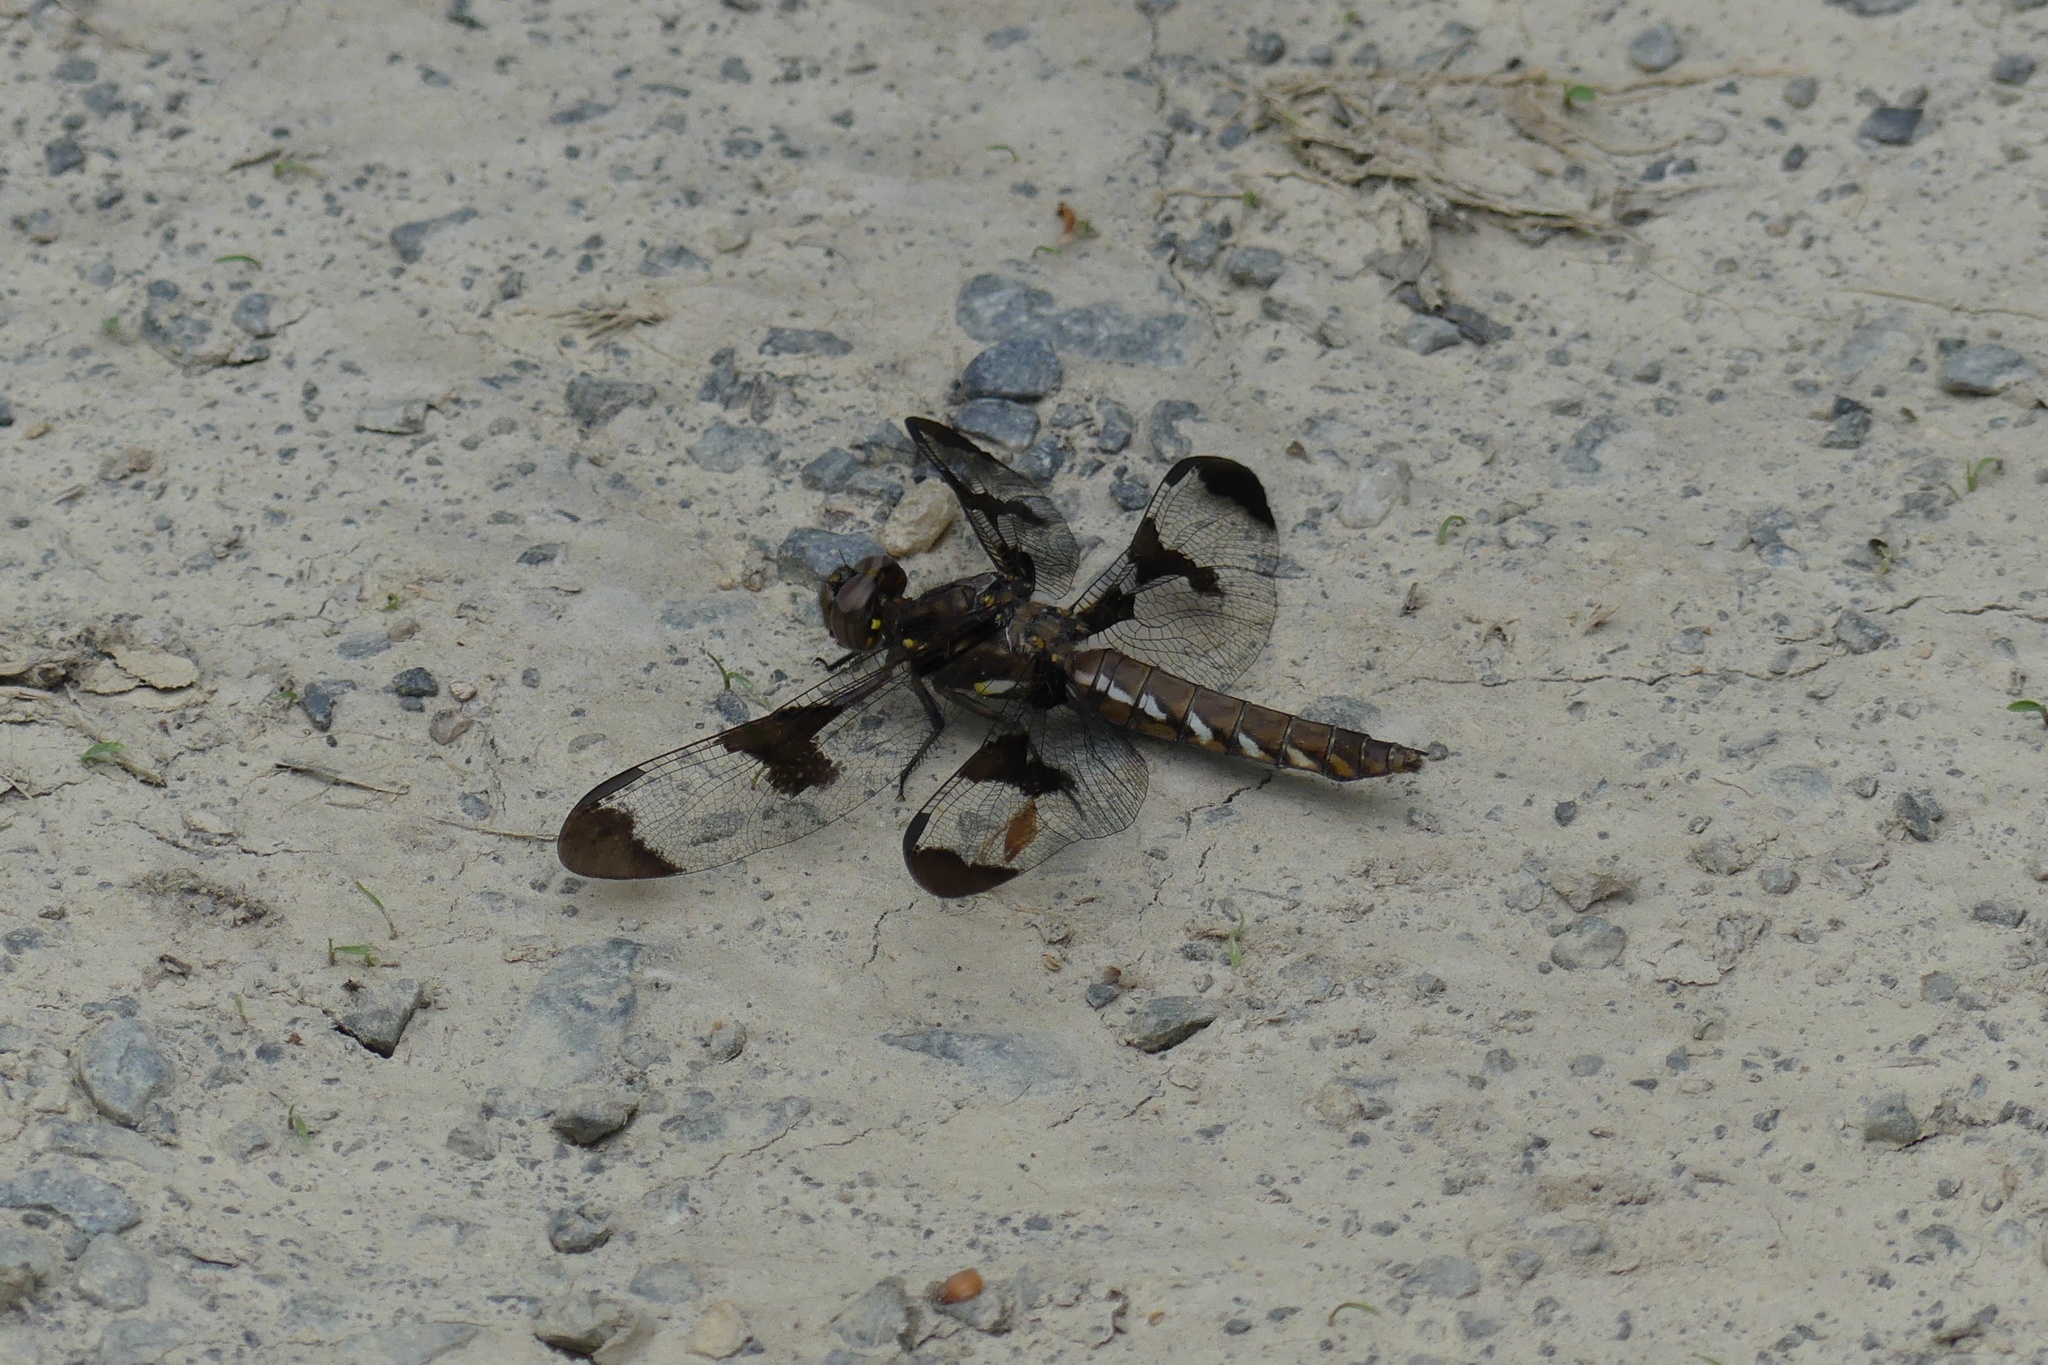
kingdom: Animalia
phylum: Arthropoda
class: Insecta
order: Odonata
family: Libellulidae
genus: Plathemis
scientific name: Plathemis lydia
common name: Common whitetail
